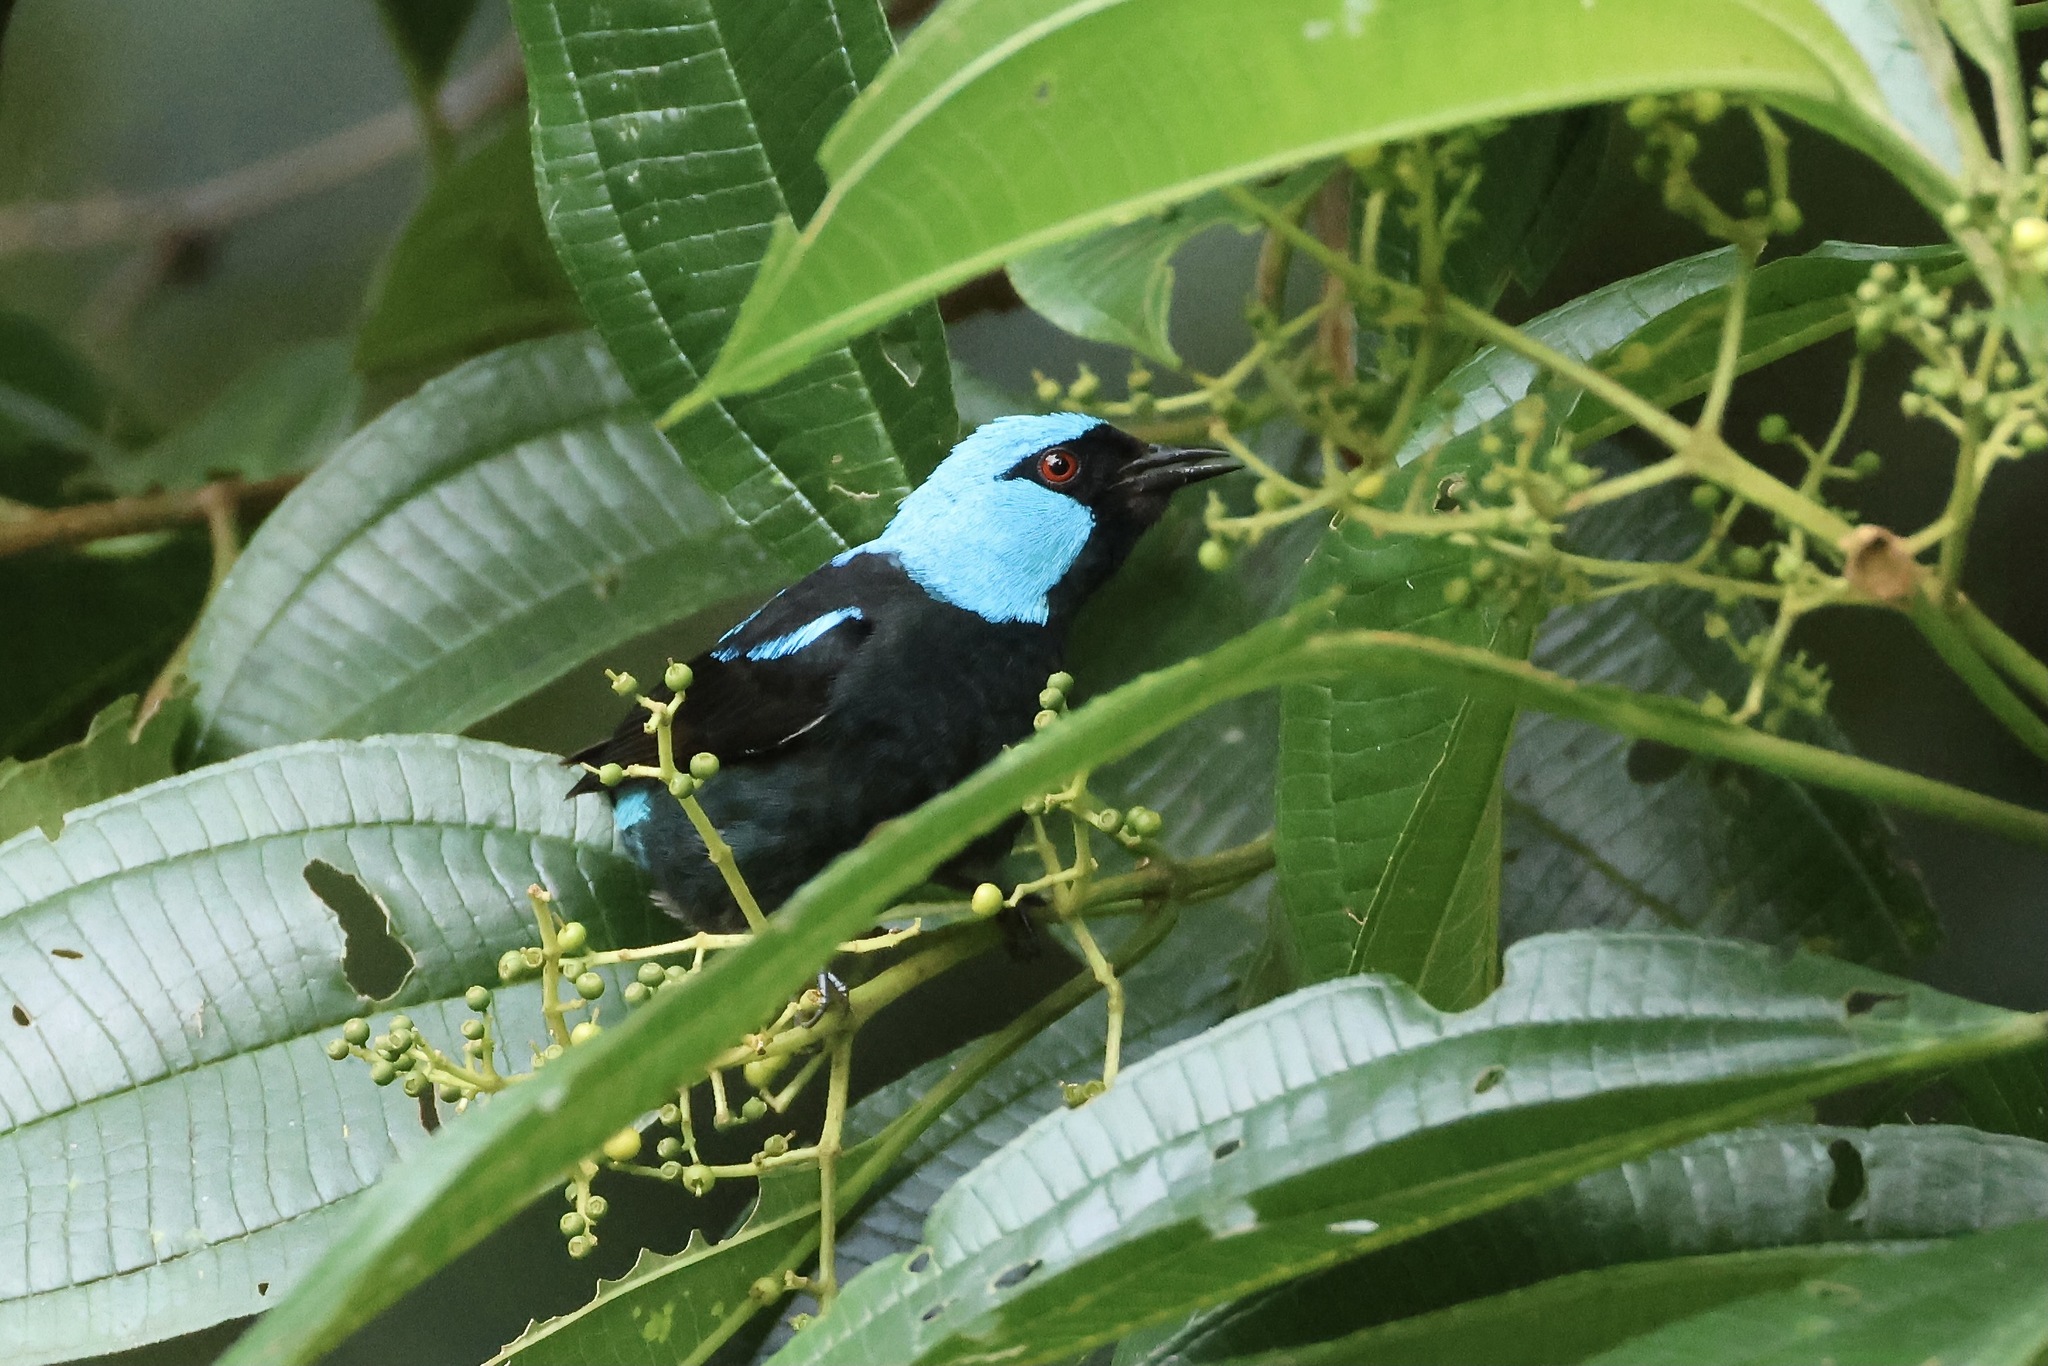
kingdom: Animalia
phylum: Chordata
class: Aves
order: Passeriformes
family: Thraupidae
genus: Dacnis
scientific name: Dacnis venusta
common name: Scarlet-thighed dacnis
